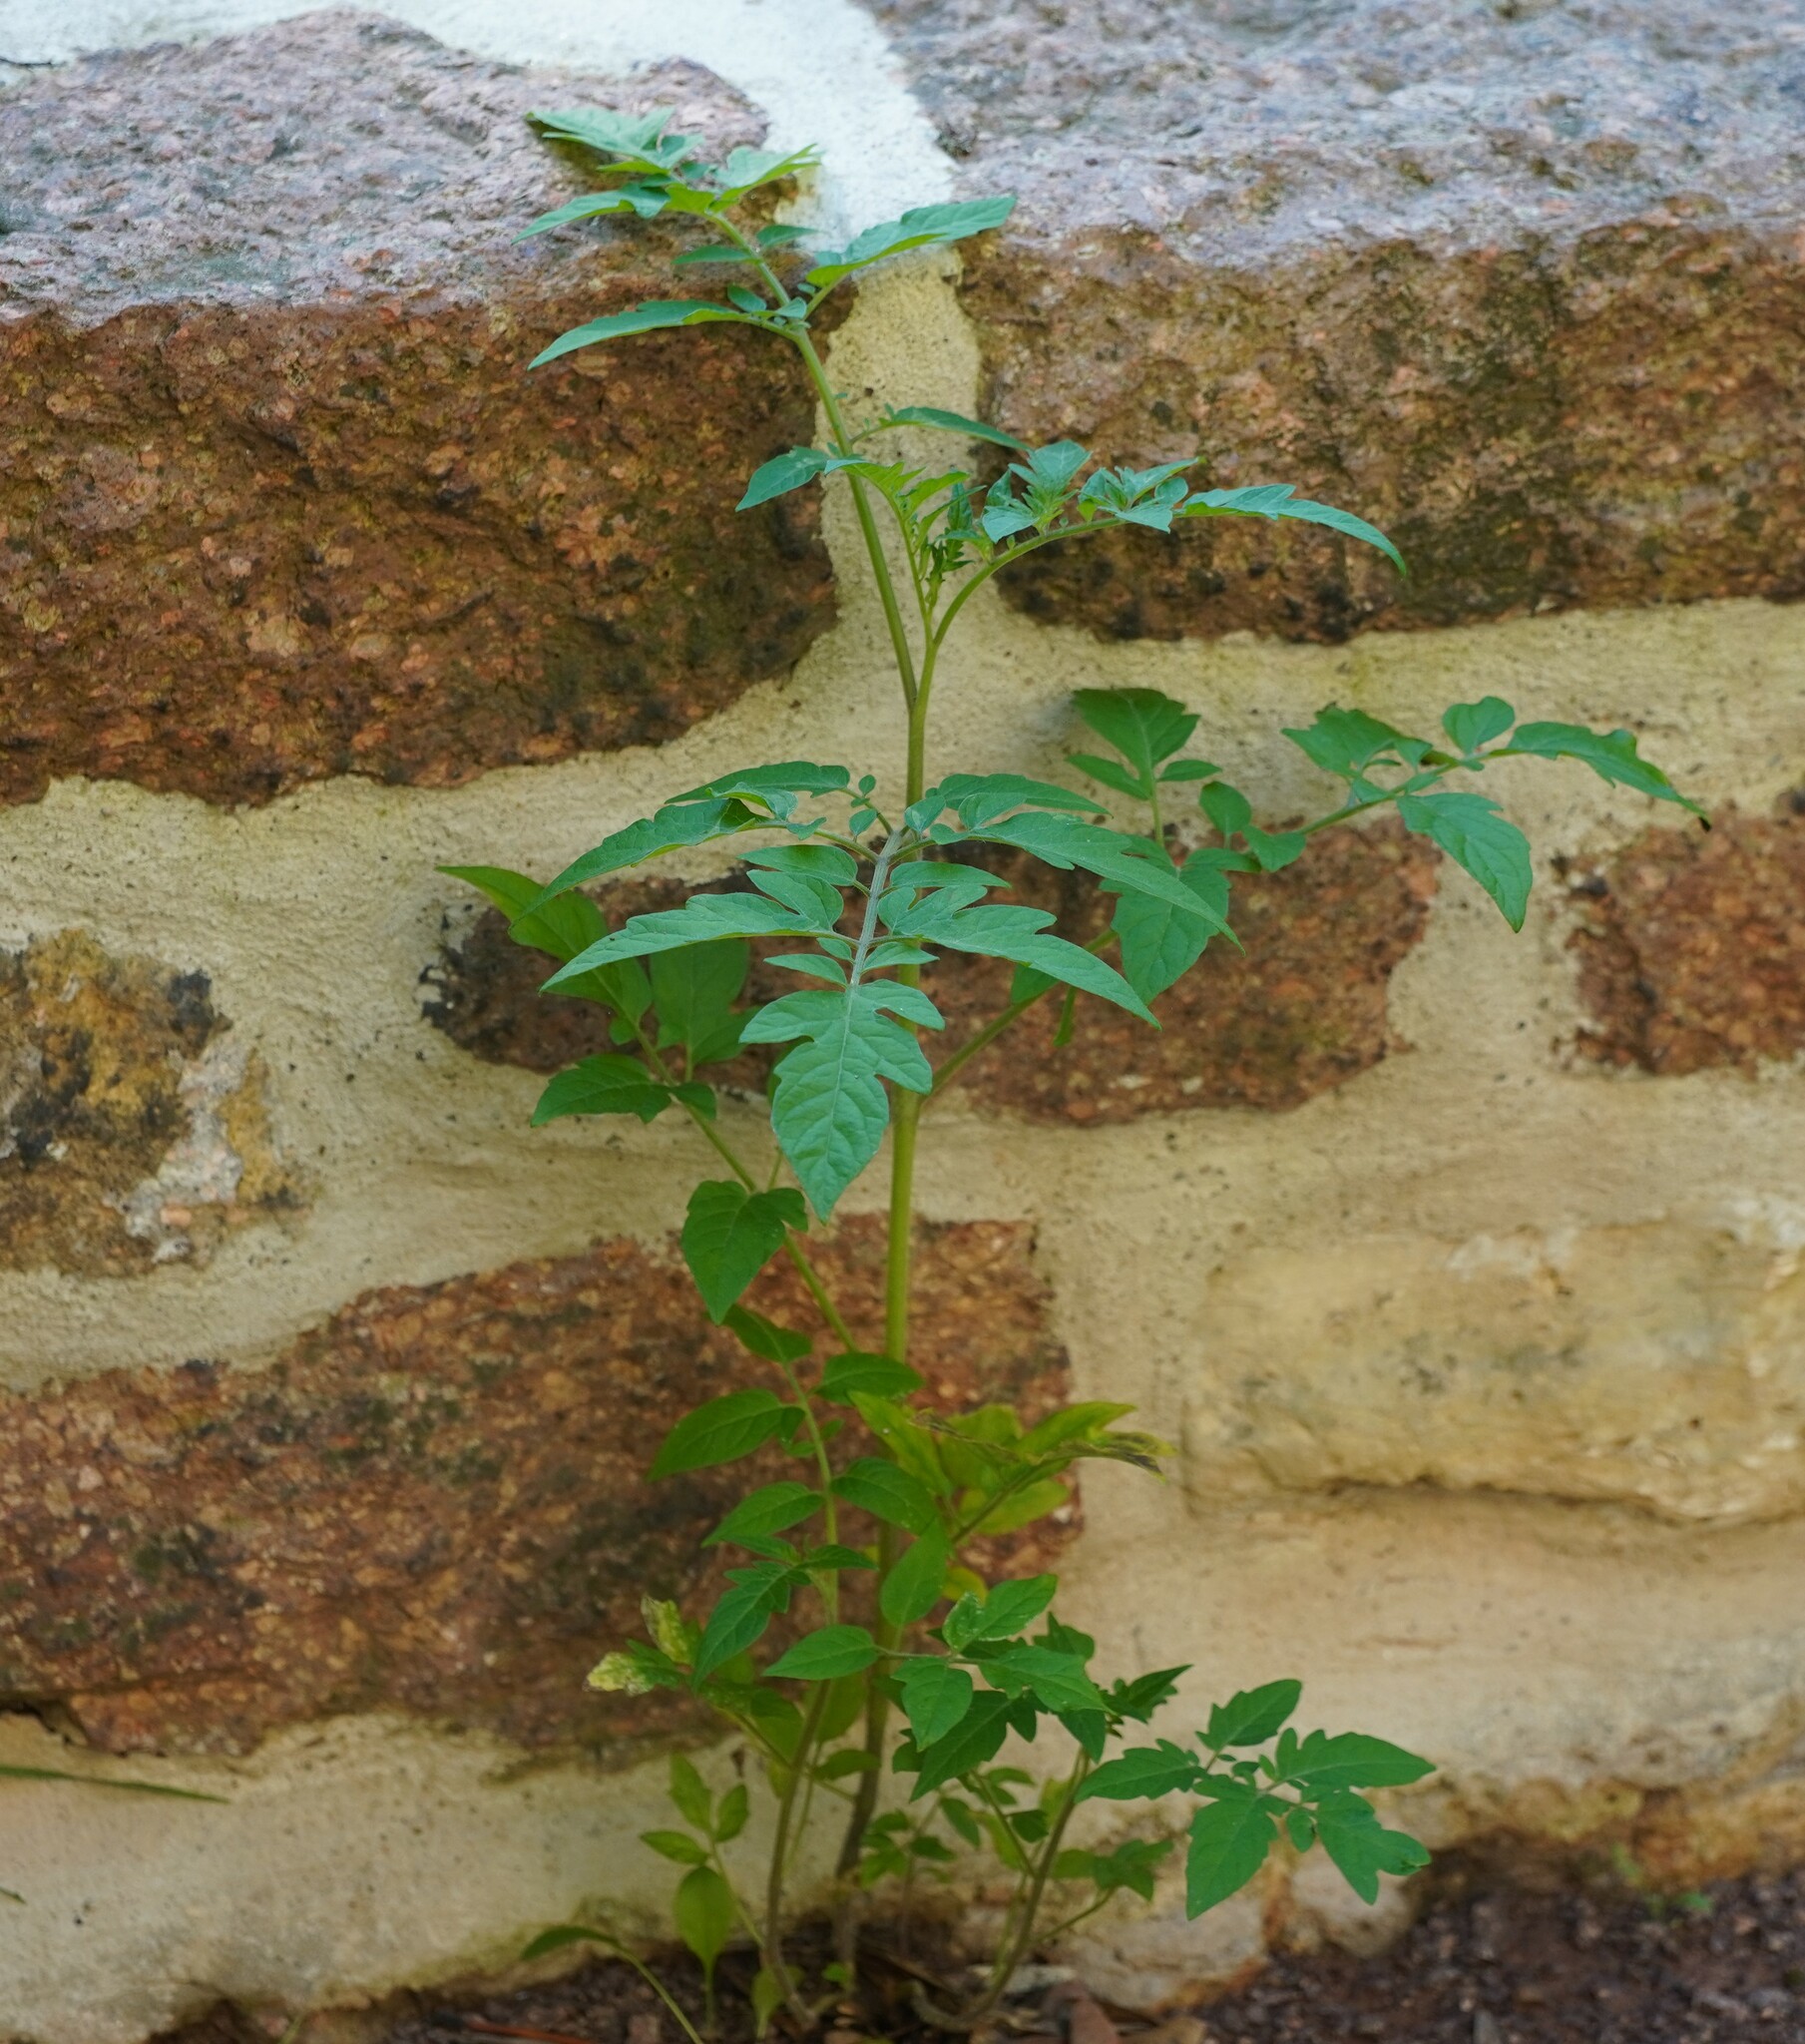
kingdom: Plantae
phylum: Tracheophyta
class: Magnoliopsida
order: Solanales
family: Solanaceae
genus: Solanum
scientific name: Solanum lycopersicum
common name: Garden tomato
